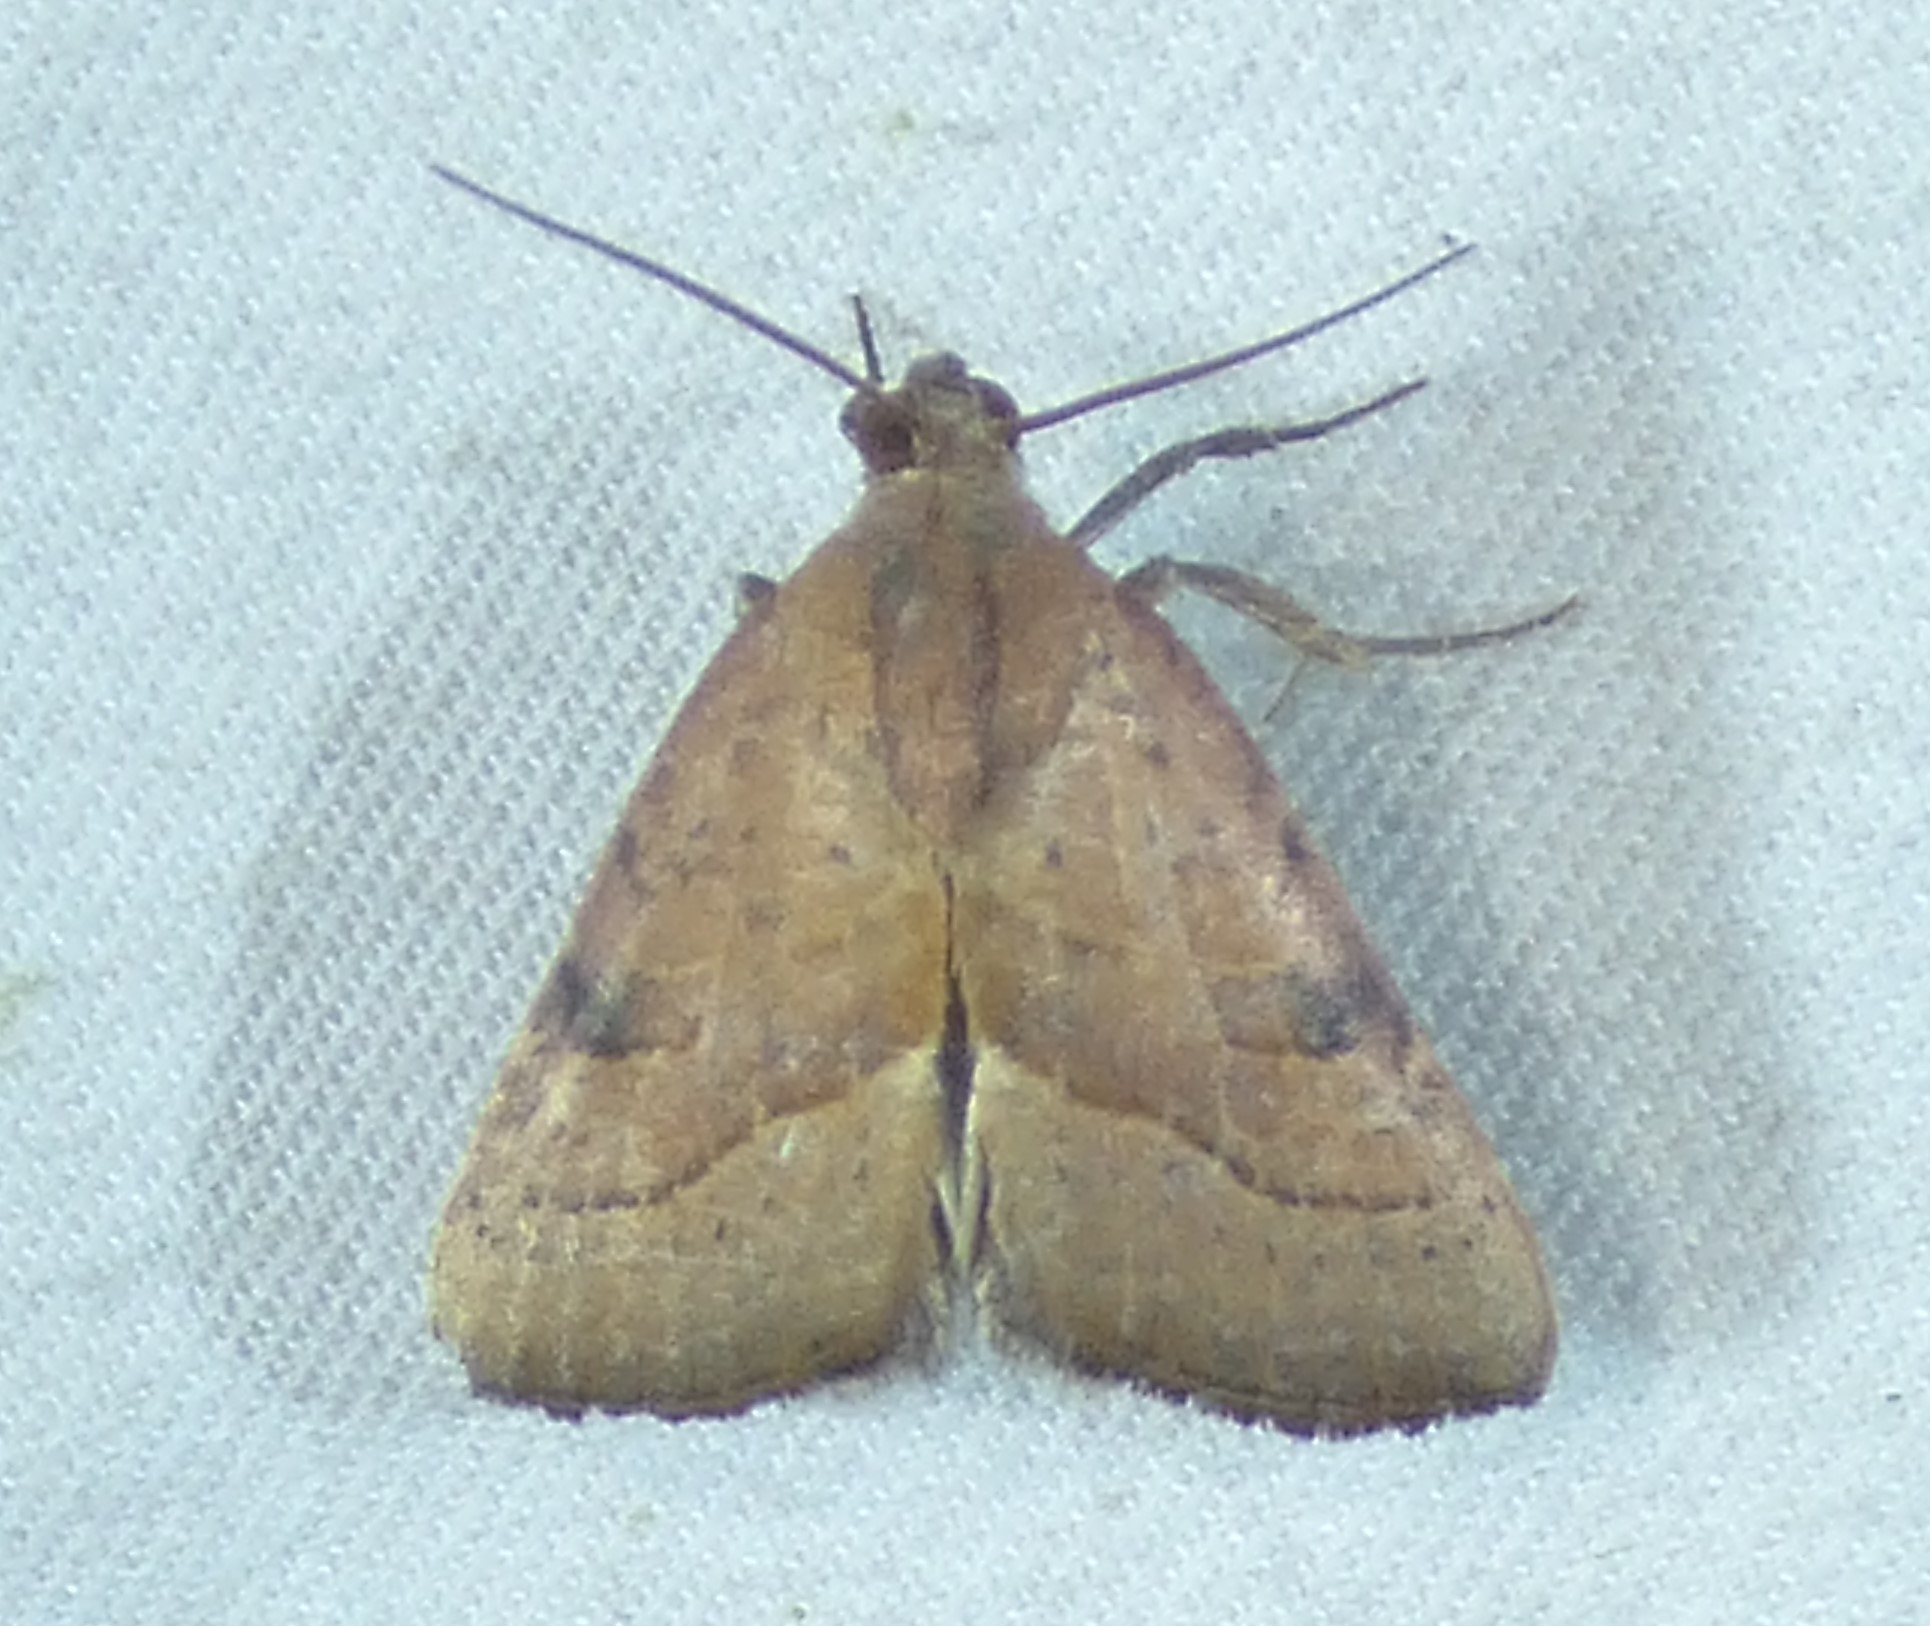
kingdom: Animalia
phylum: Arthropoda
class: Insecta
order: Lepidoptera
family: Noctuidae
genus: Galgula
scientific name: Galgula partita
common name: Wedgeling
